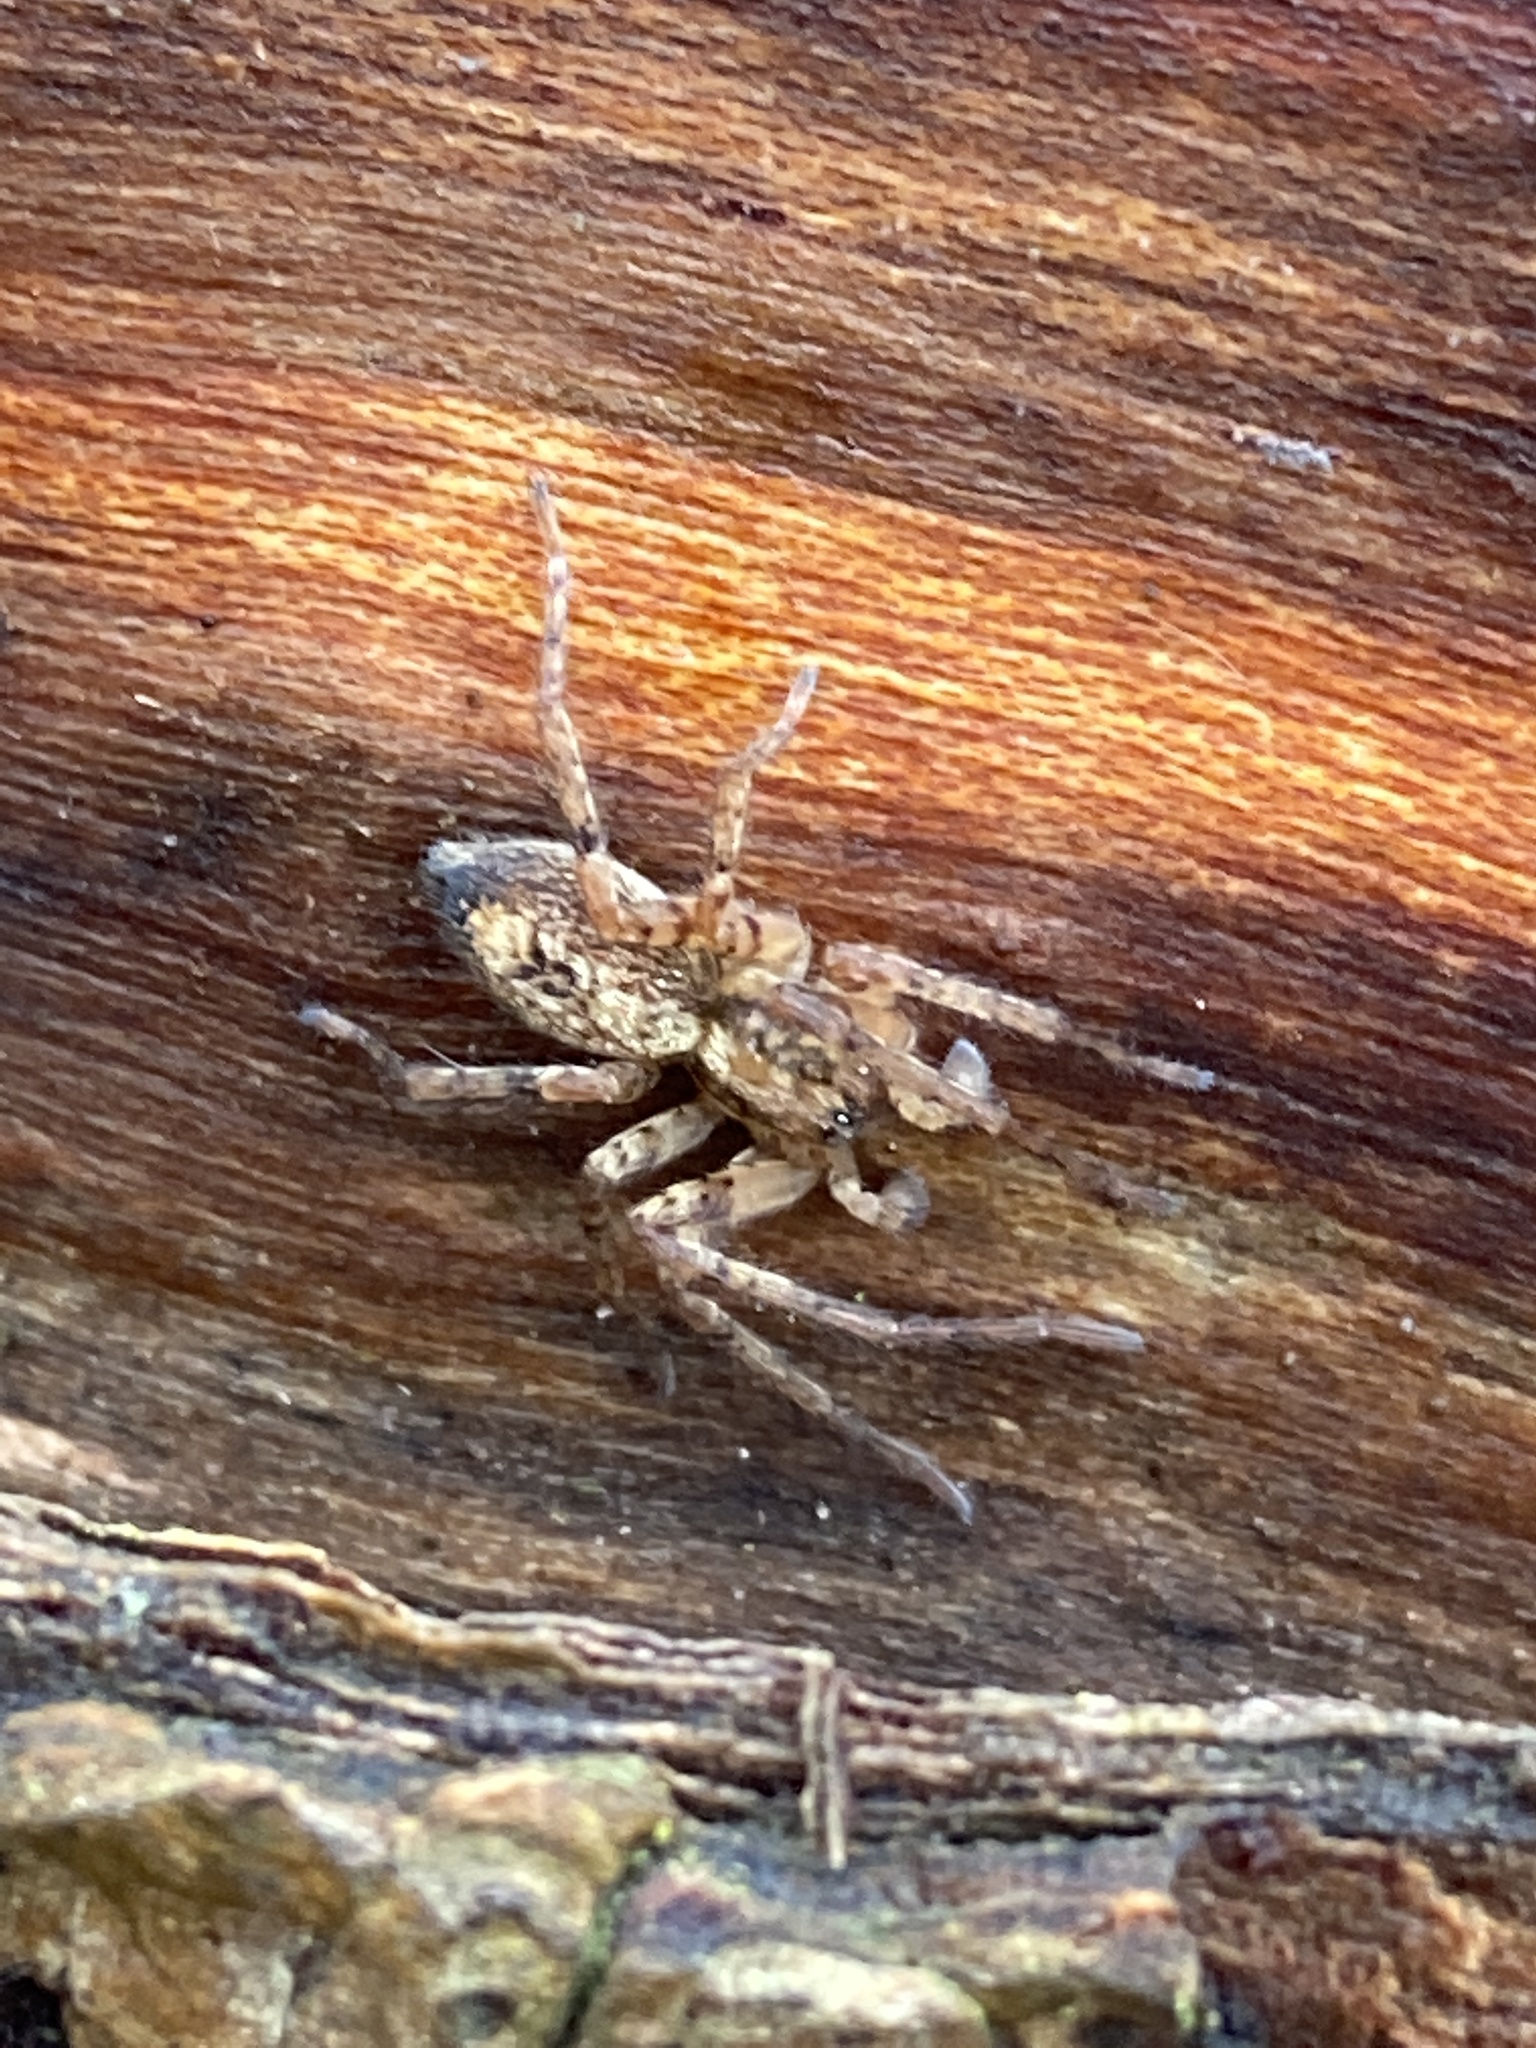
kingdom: Animalia
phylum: Arthropoda
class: Arachnida
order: Araneae
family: Anyphaenidae
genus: Anyphaena
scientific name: Anyphaena accentuata
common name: Buzzing spider
